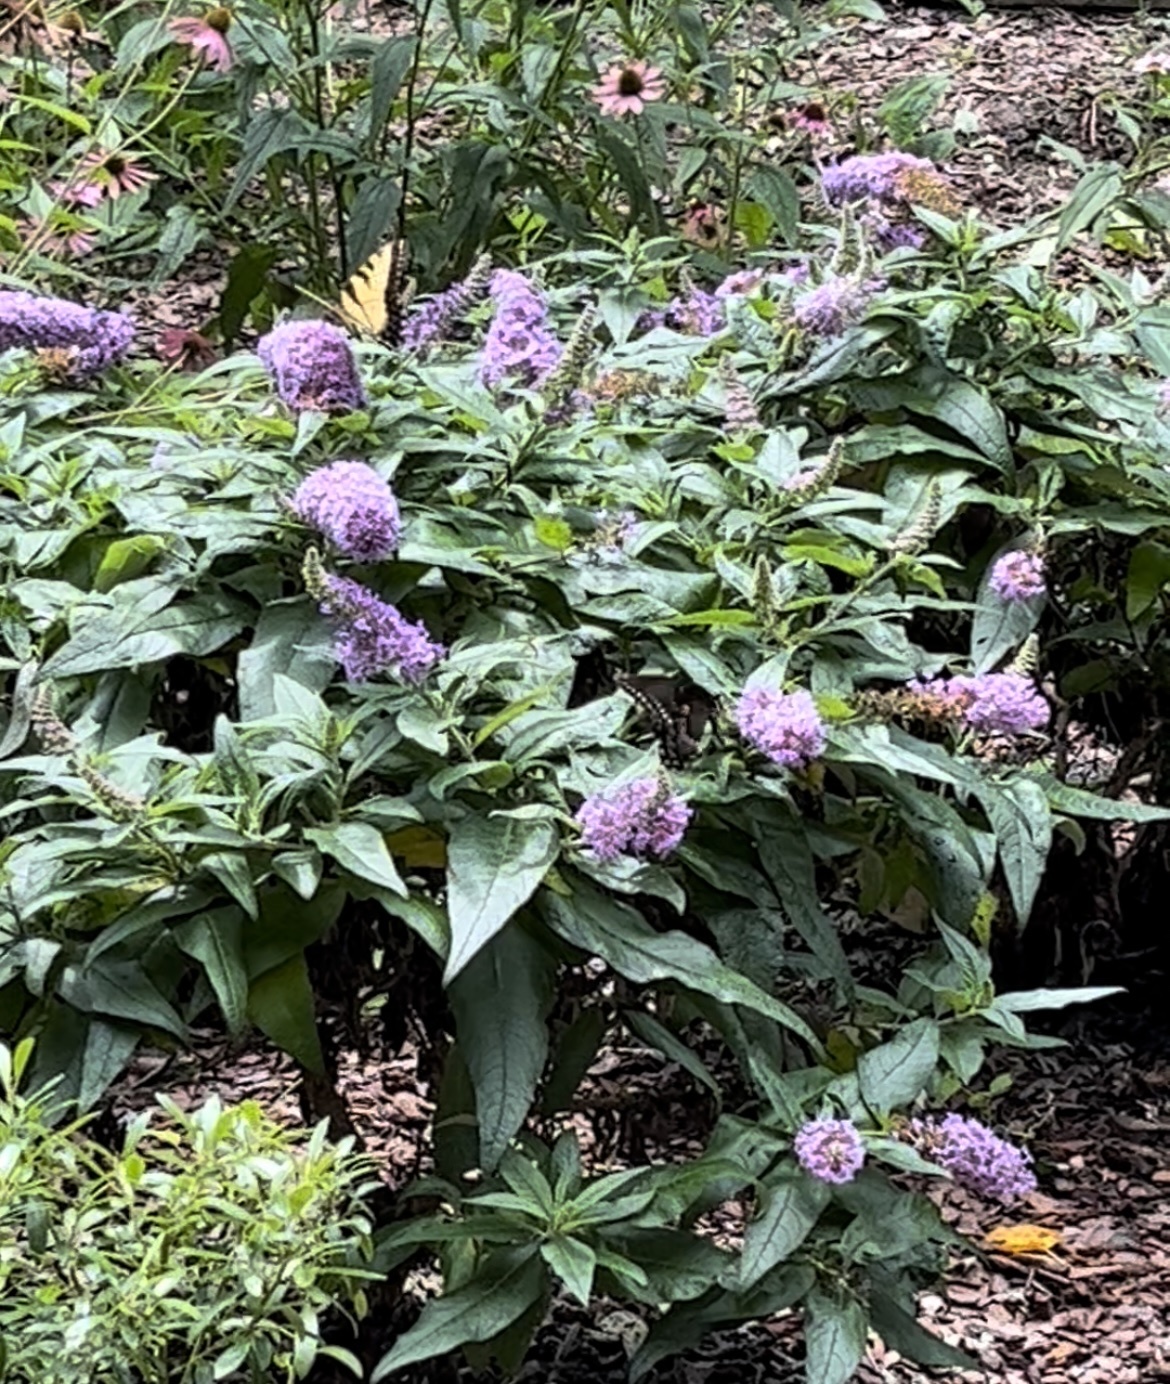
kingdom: Animalia
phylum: Arthropoda
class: Insecta
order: Lepidoptera
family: Papilionidae
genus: Papilio
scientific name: Papilio glaucus
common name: Tiger swallowtail
